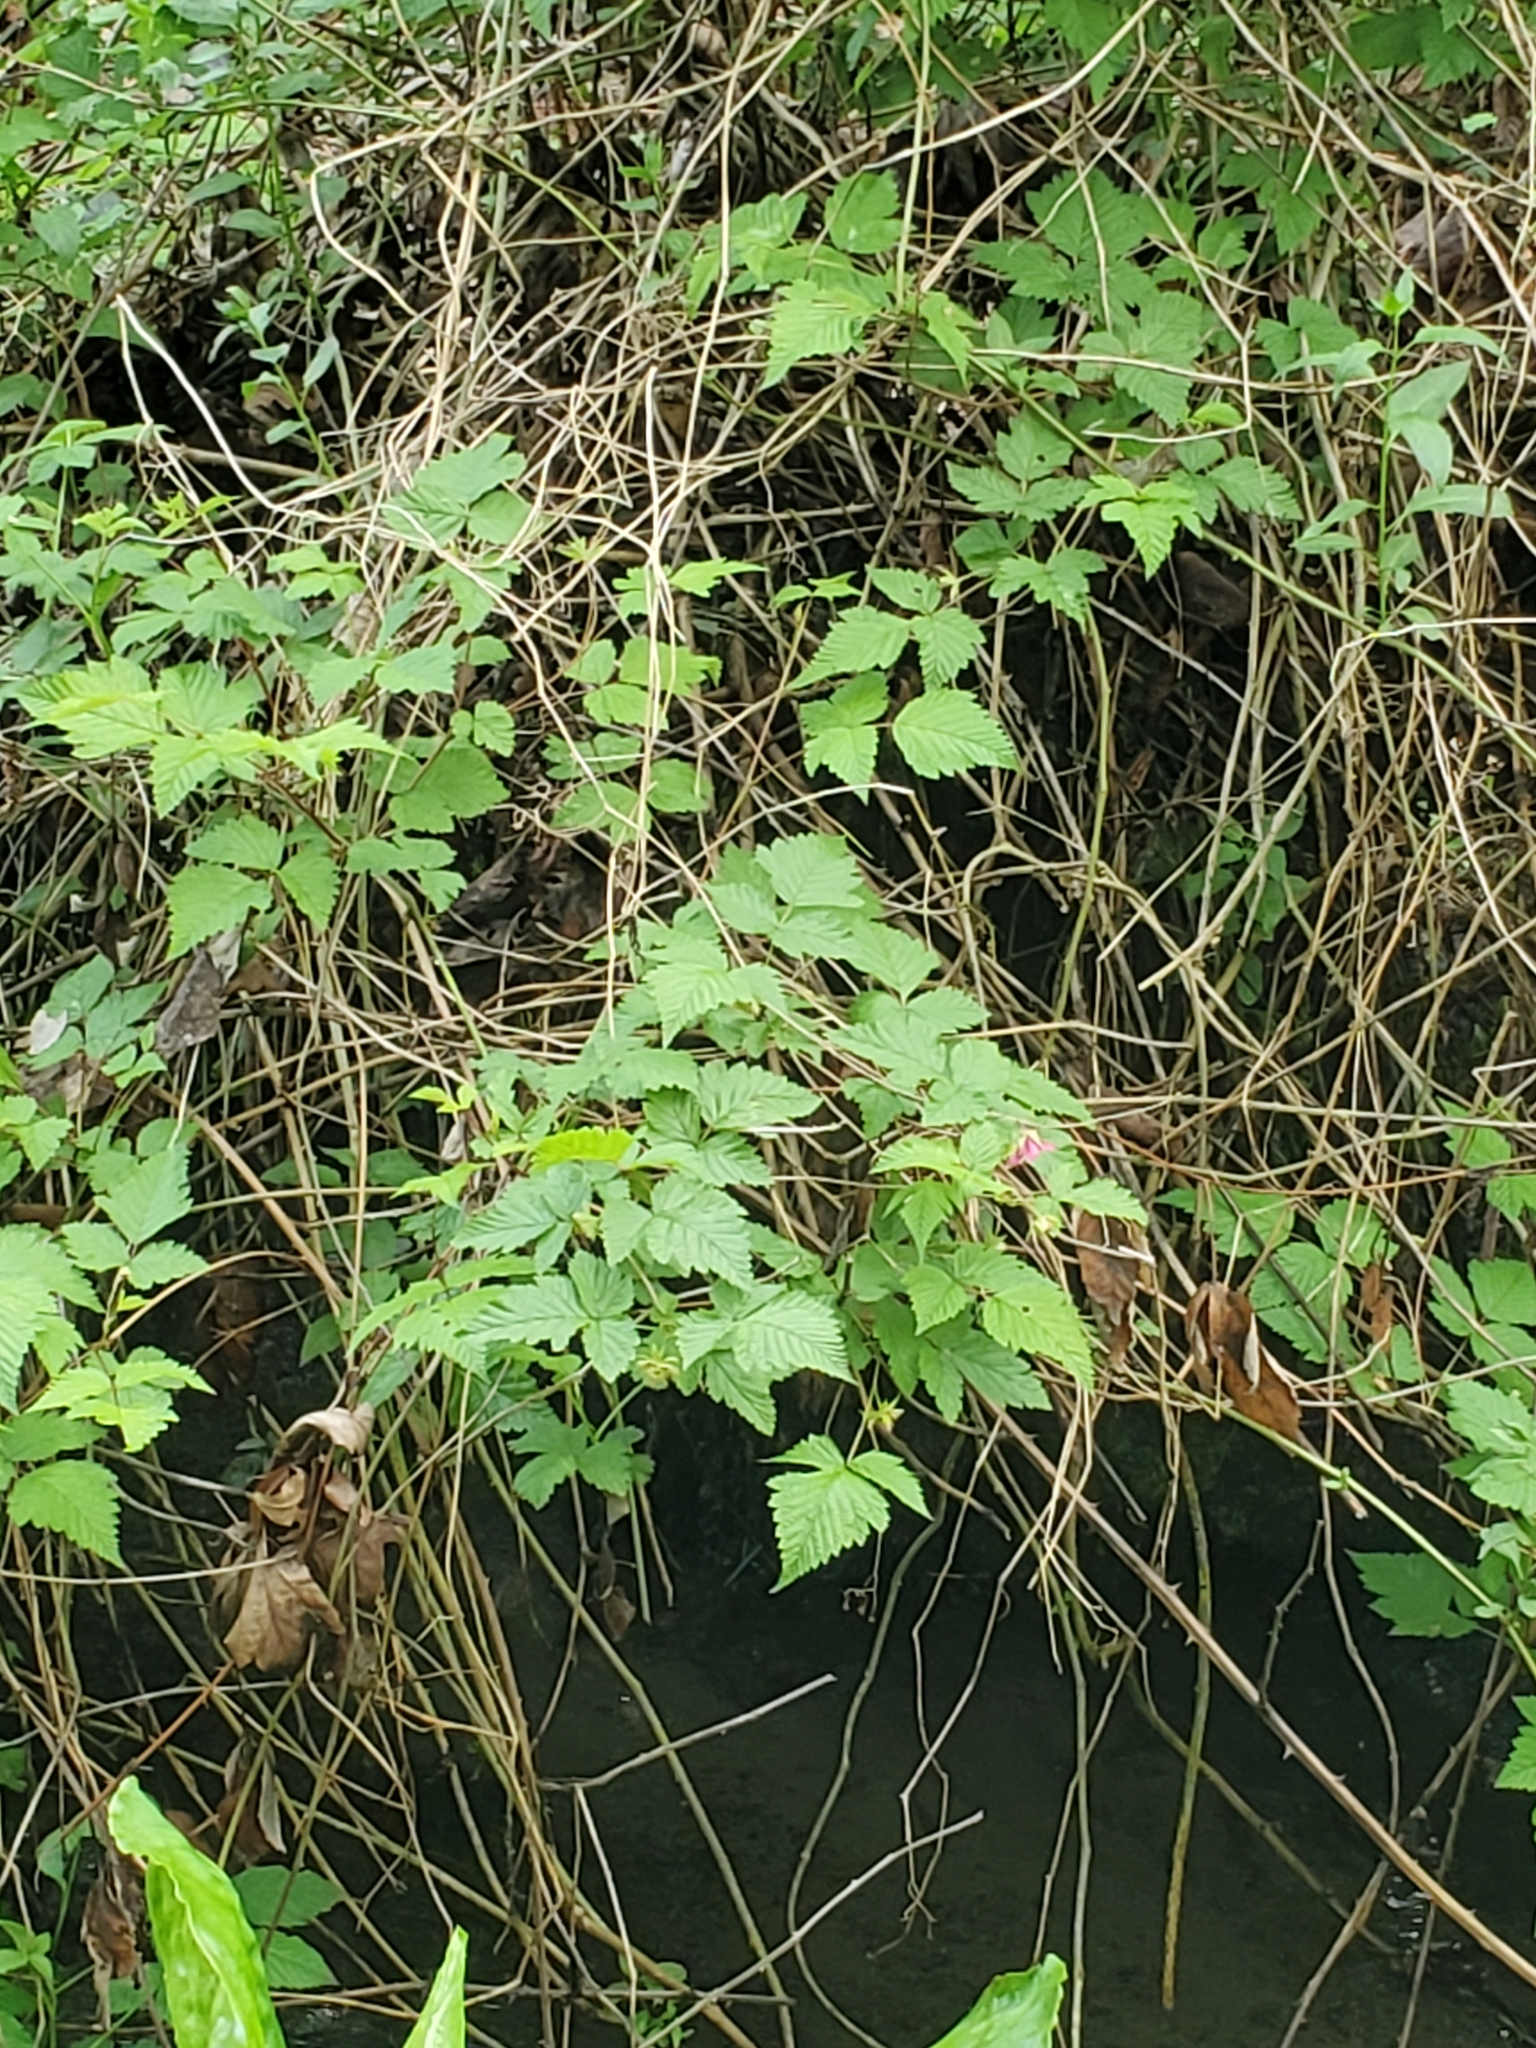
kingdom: Plantae
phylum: Tracheophyta
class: Magnoliopsida
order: Rosales
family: Rosaceae
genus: Rubus
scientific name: Rubus spectabilis
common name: Salmonberry
